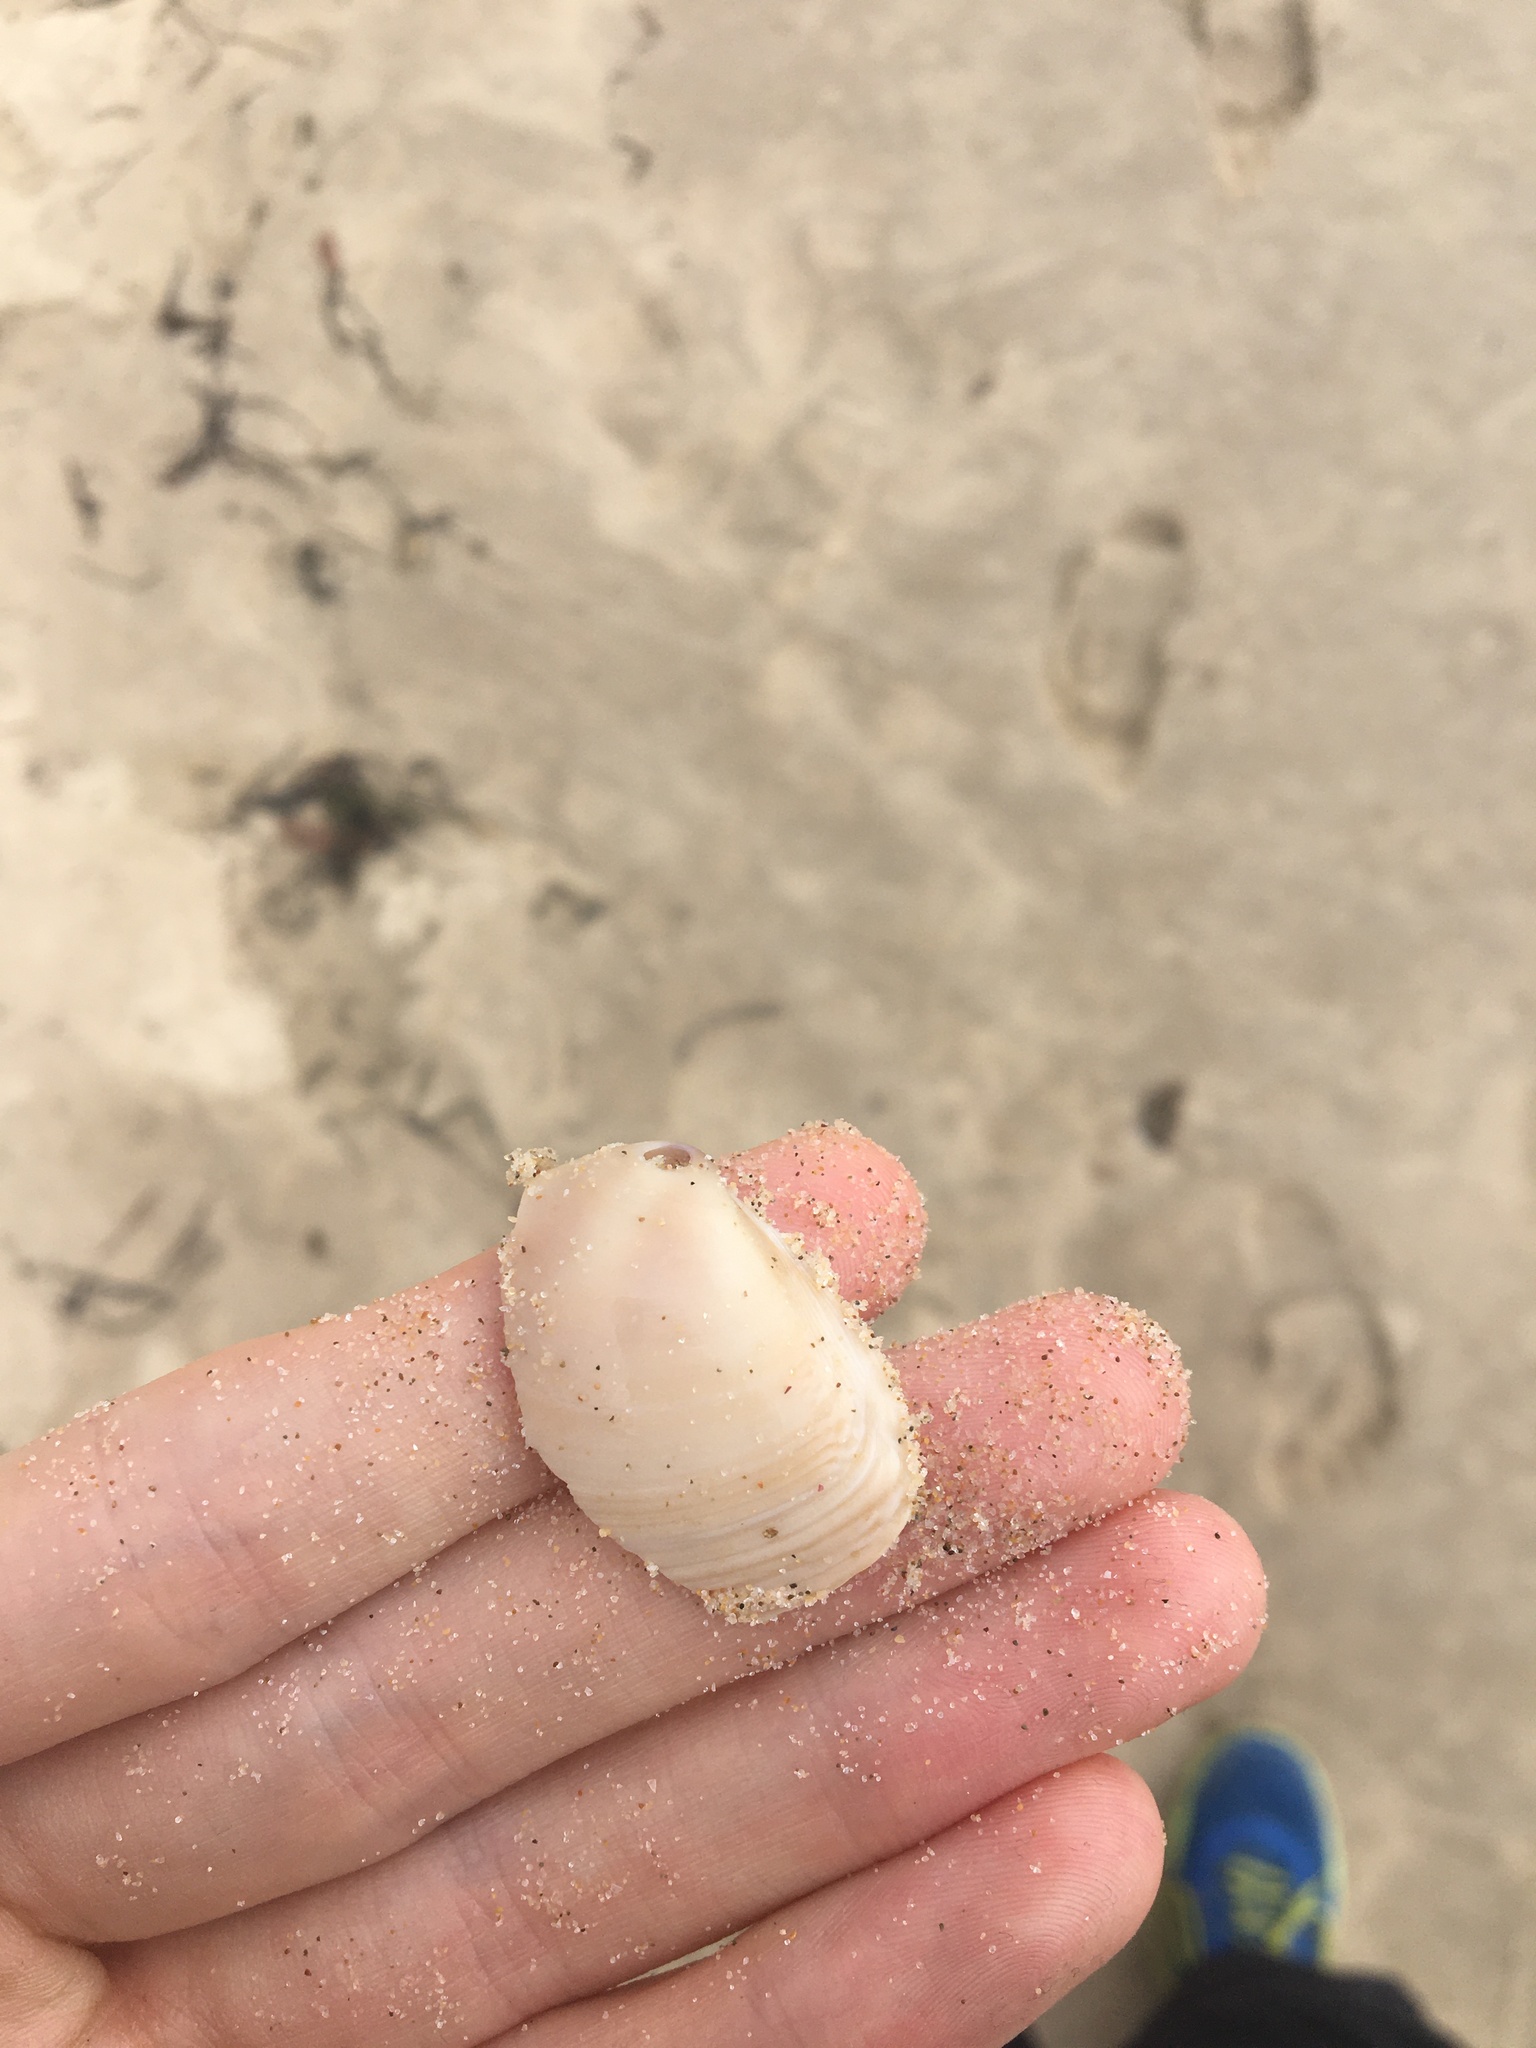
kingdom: Animalia
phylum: Mollusca
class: Bivalvia
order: Venerida
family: Mactridae
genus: Austromactra
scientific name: Austromactra rufescens
